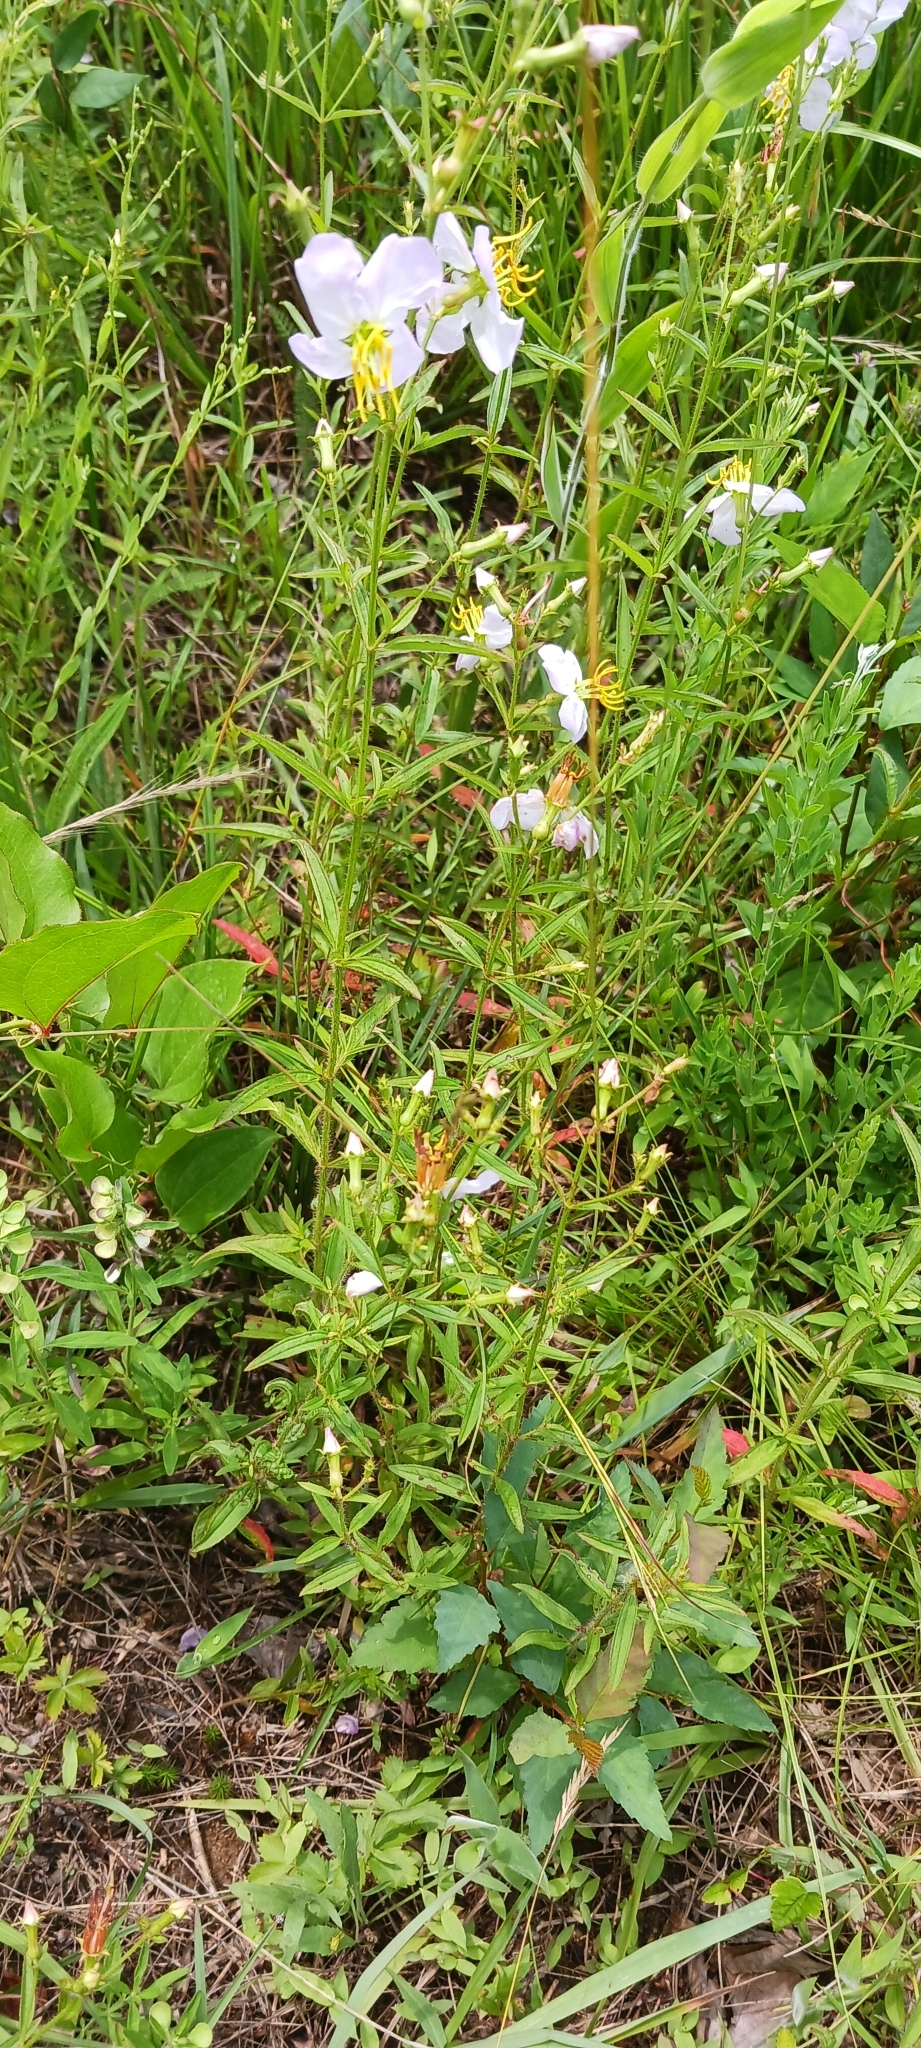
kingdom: Plantae
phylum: Tracheophyta
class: Magnoliopsida
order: Myrtales
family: Melastomataceae
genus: Rhexia
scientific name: Rhexia mariana
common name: Dull meadow-pitcher
